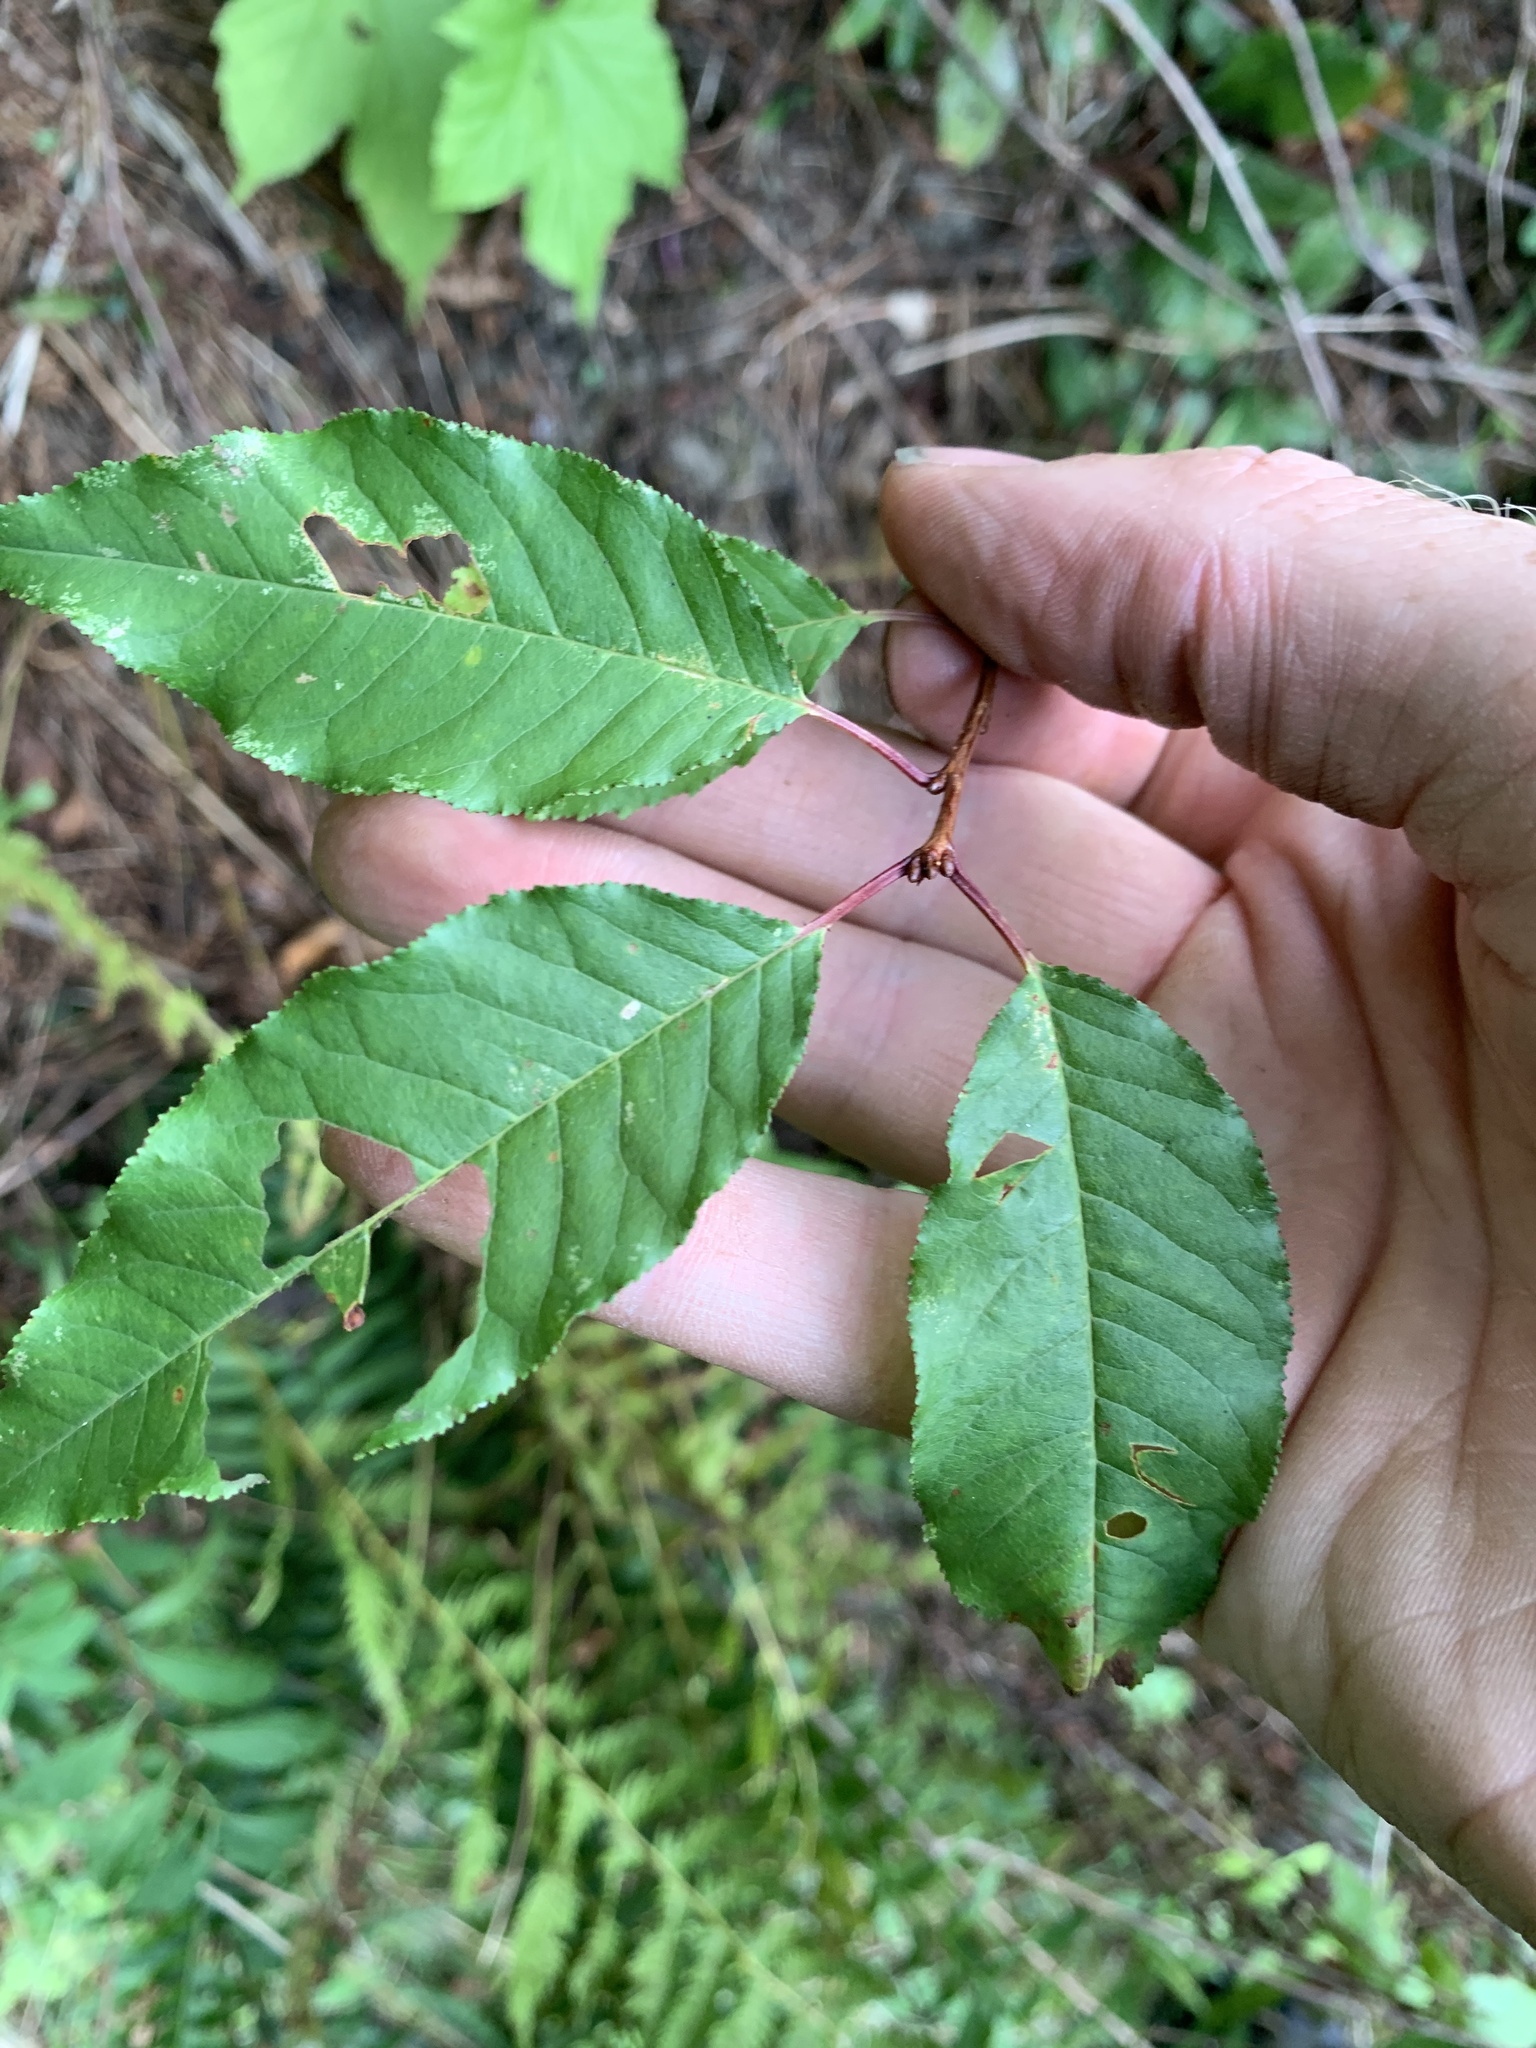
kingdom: Plantae
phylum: Tracheophyta
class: Magnoliopsida
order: Rosales
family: Rosaceae
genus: Prunus
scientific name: Prunus pensylvanica
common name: Pin cherry
